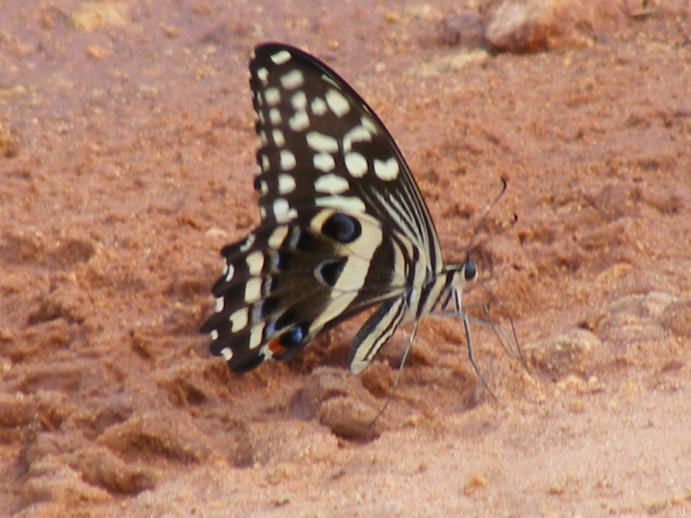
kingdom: Animalia
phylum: Arthropoda
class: Insecta
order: Lepidoptera
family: Papilionidae
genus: Papilio
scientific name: Papilio demodocus
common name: Christmas butterfly
